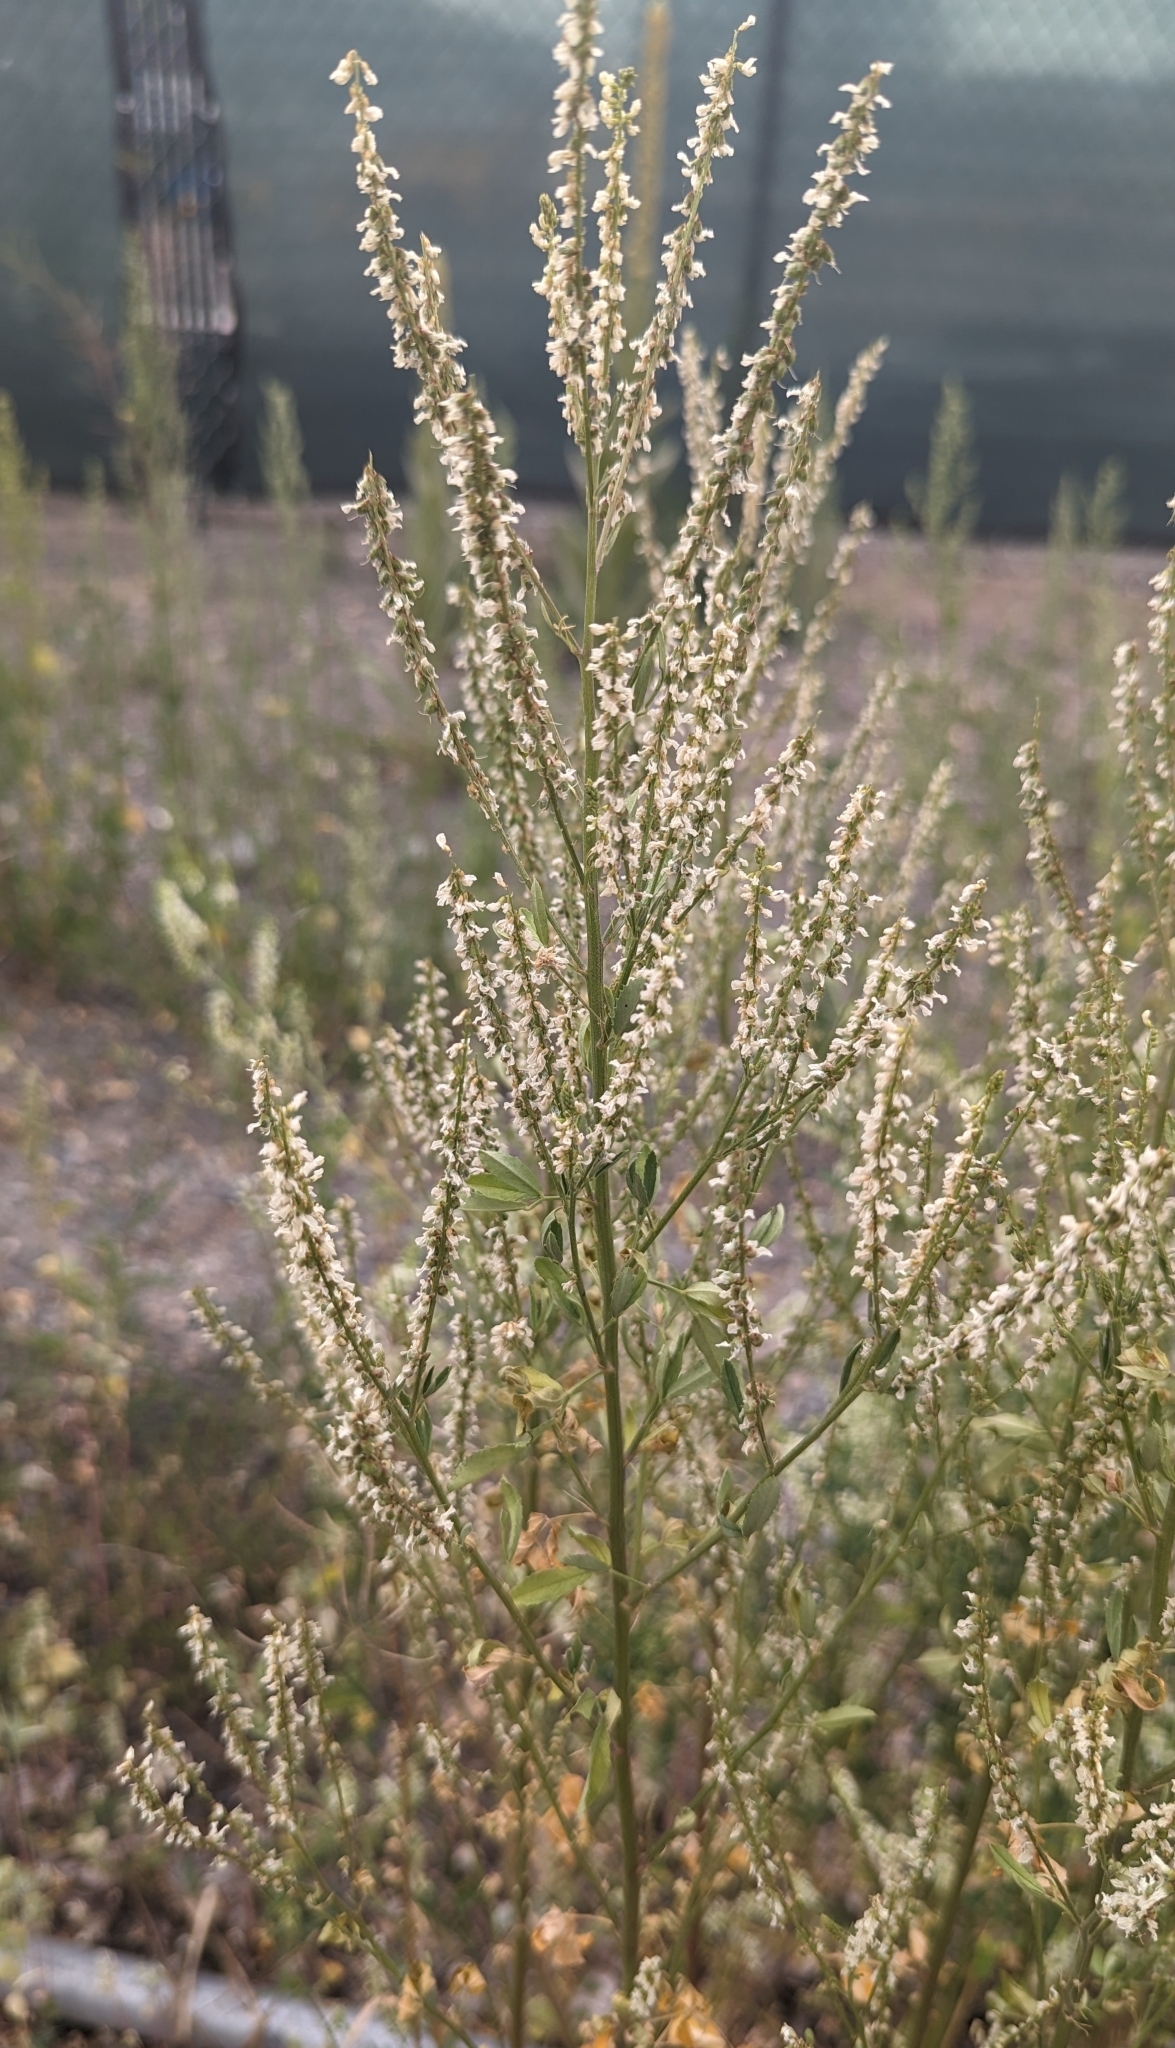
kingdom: Plantae
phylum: Tracheophyta
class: Magnoliopsida
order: Fabales
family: Fabaceae
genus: Melilotus
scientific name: Melilotus albus
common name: White melilot
